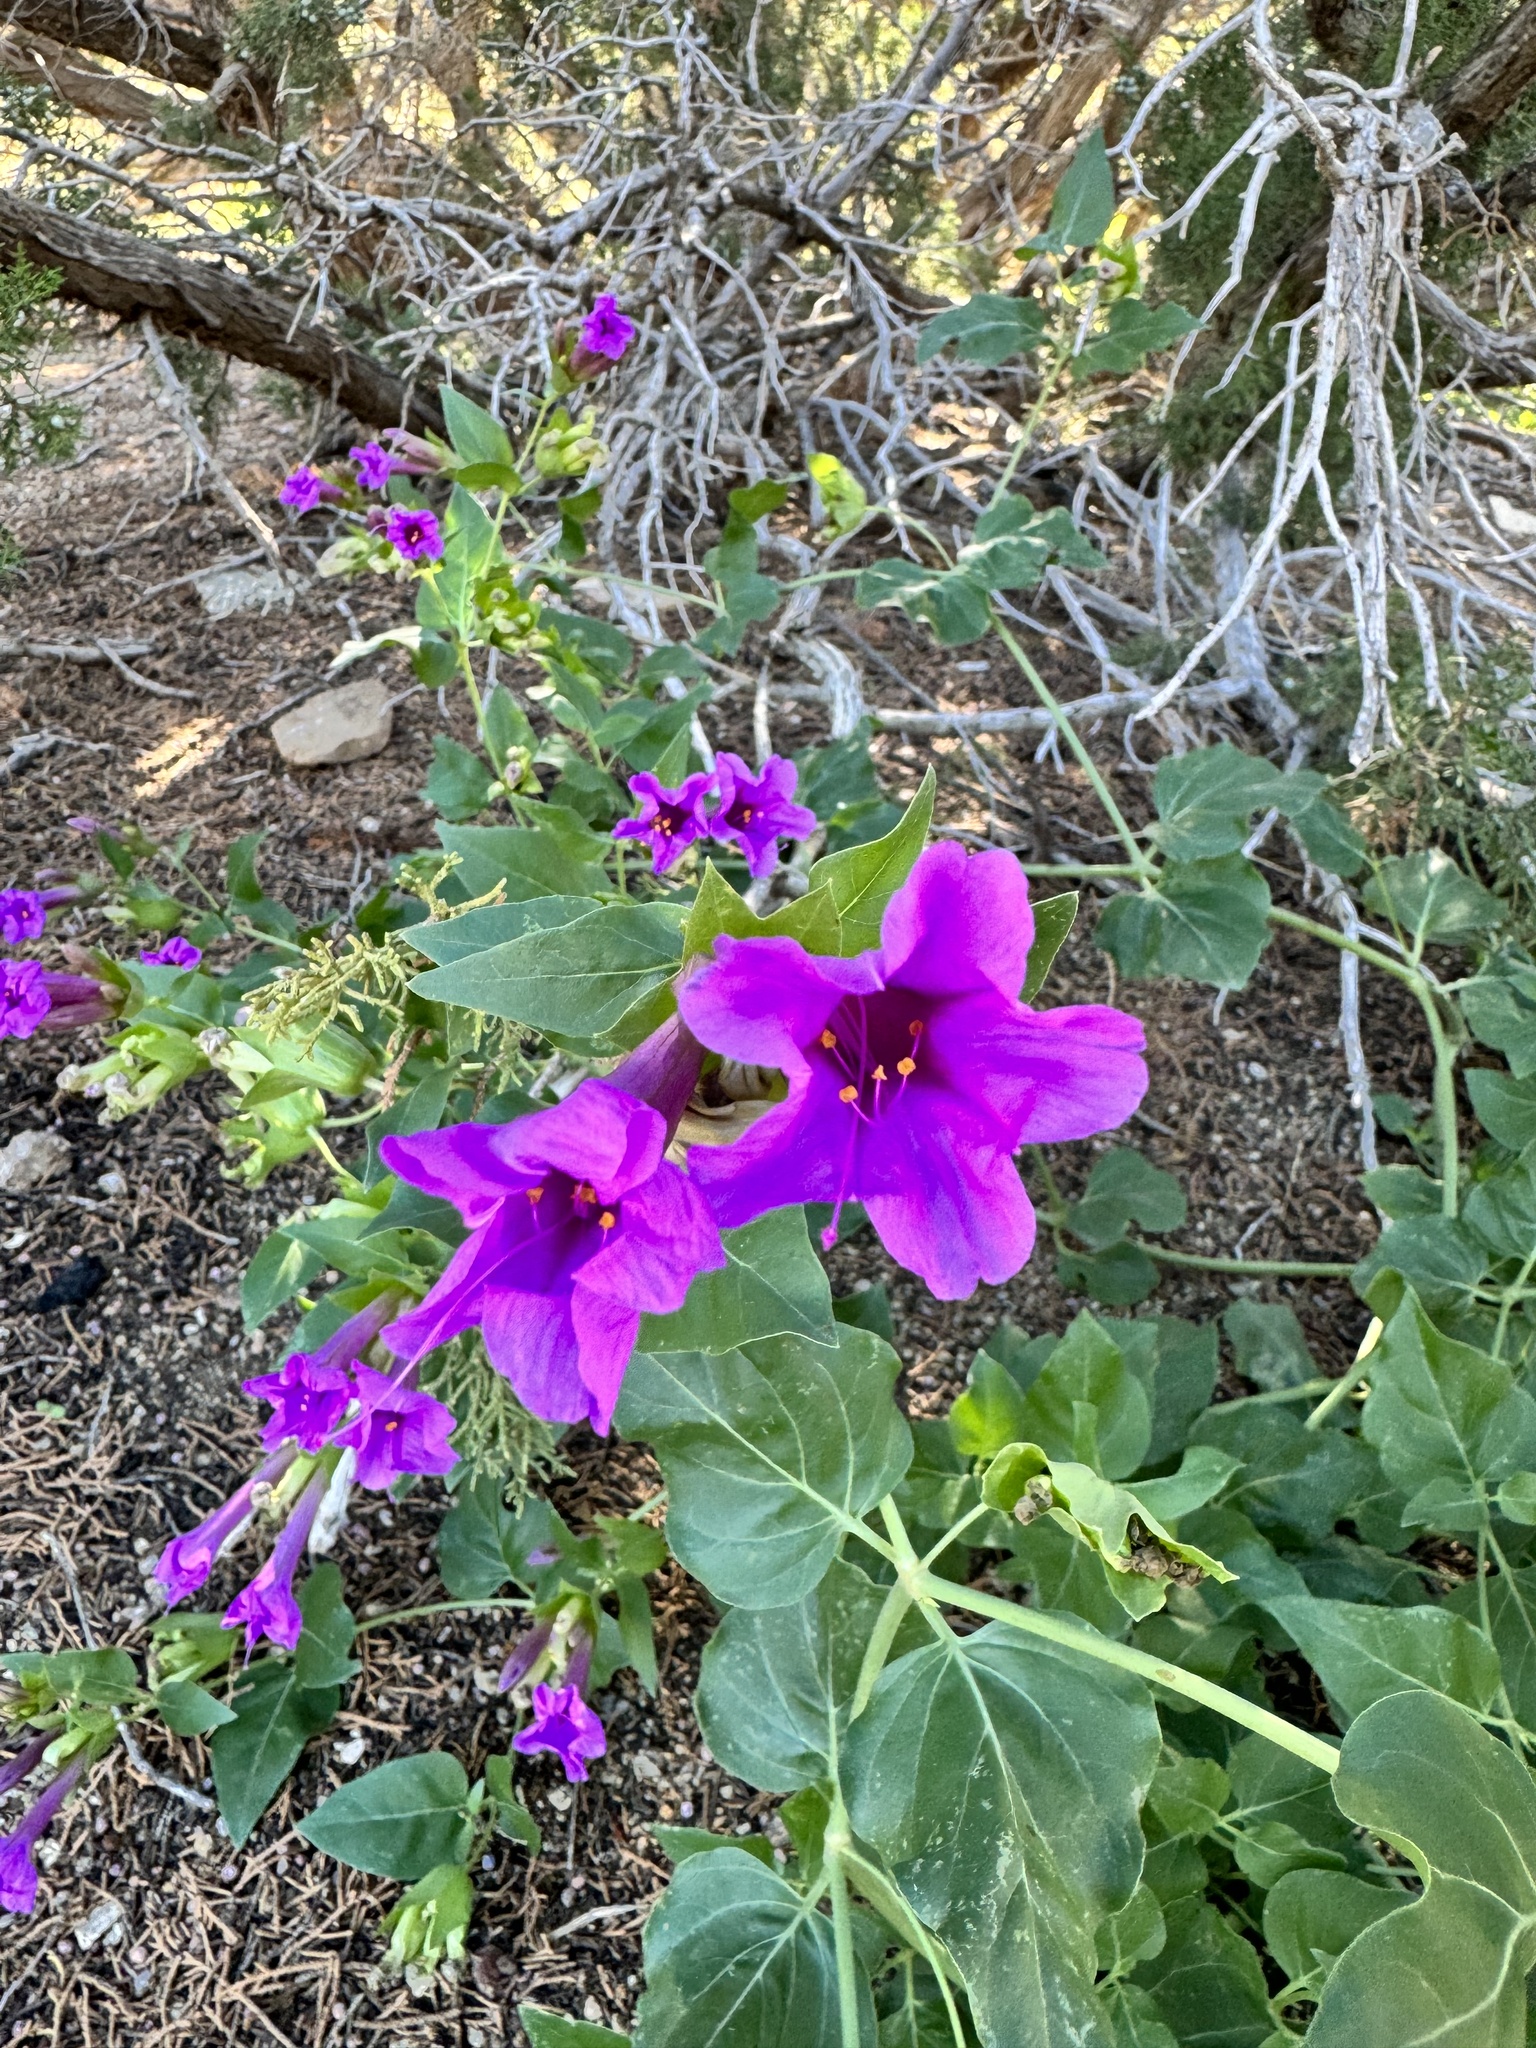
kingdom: Plantae
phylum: Tracheophyta
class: Magnoliopsida
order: Caryophyllales
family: Nyctaginaceae
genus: Mirabilis
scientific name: Mirabilis multiflora
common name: Froebel's four-o'clock
